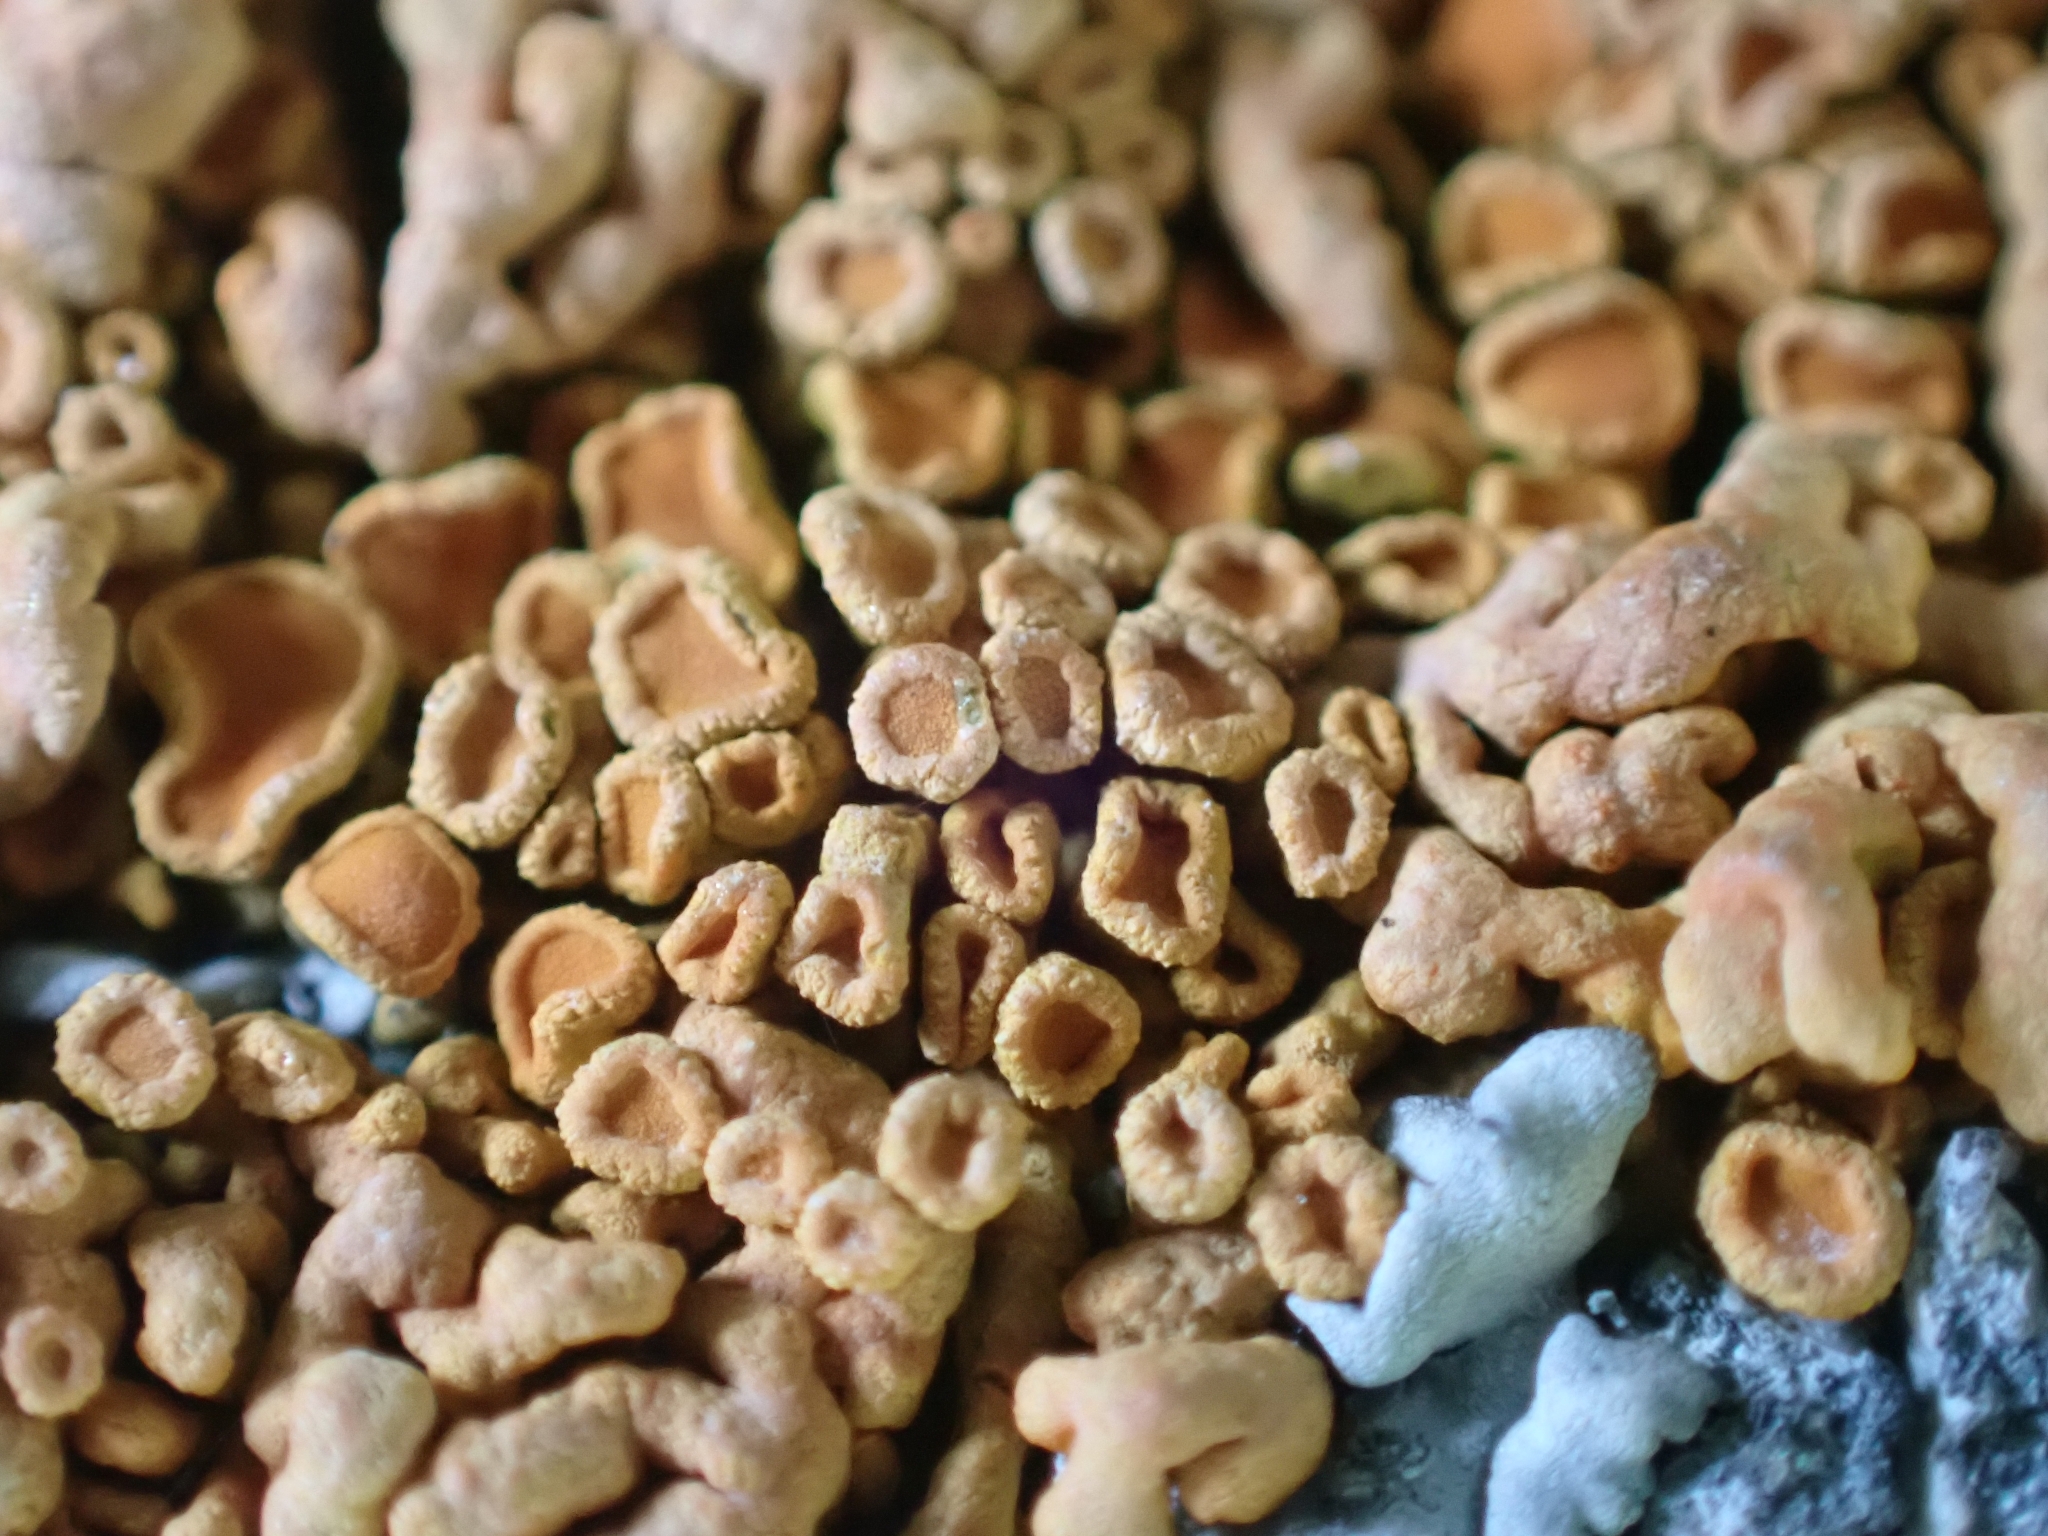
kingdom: Fungi
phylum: Ascomycota
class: Lecanoromycetes
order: Teloschistales
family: Teloschistaceae
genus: Xanthoria
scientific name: Xanthoria elegans
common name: Elegant sunburst lichen
